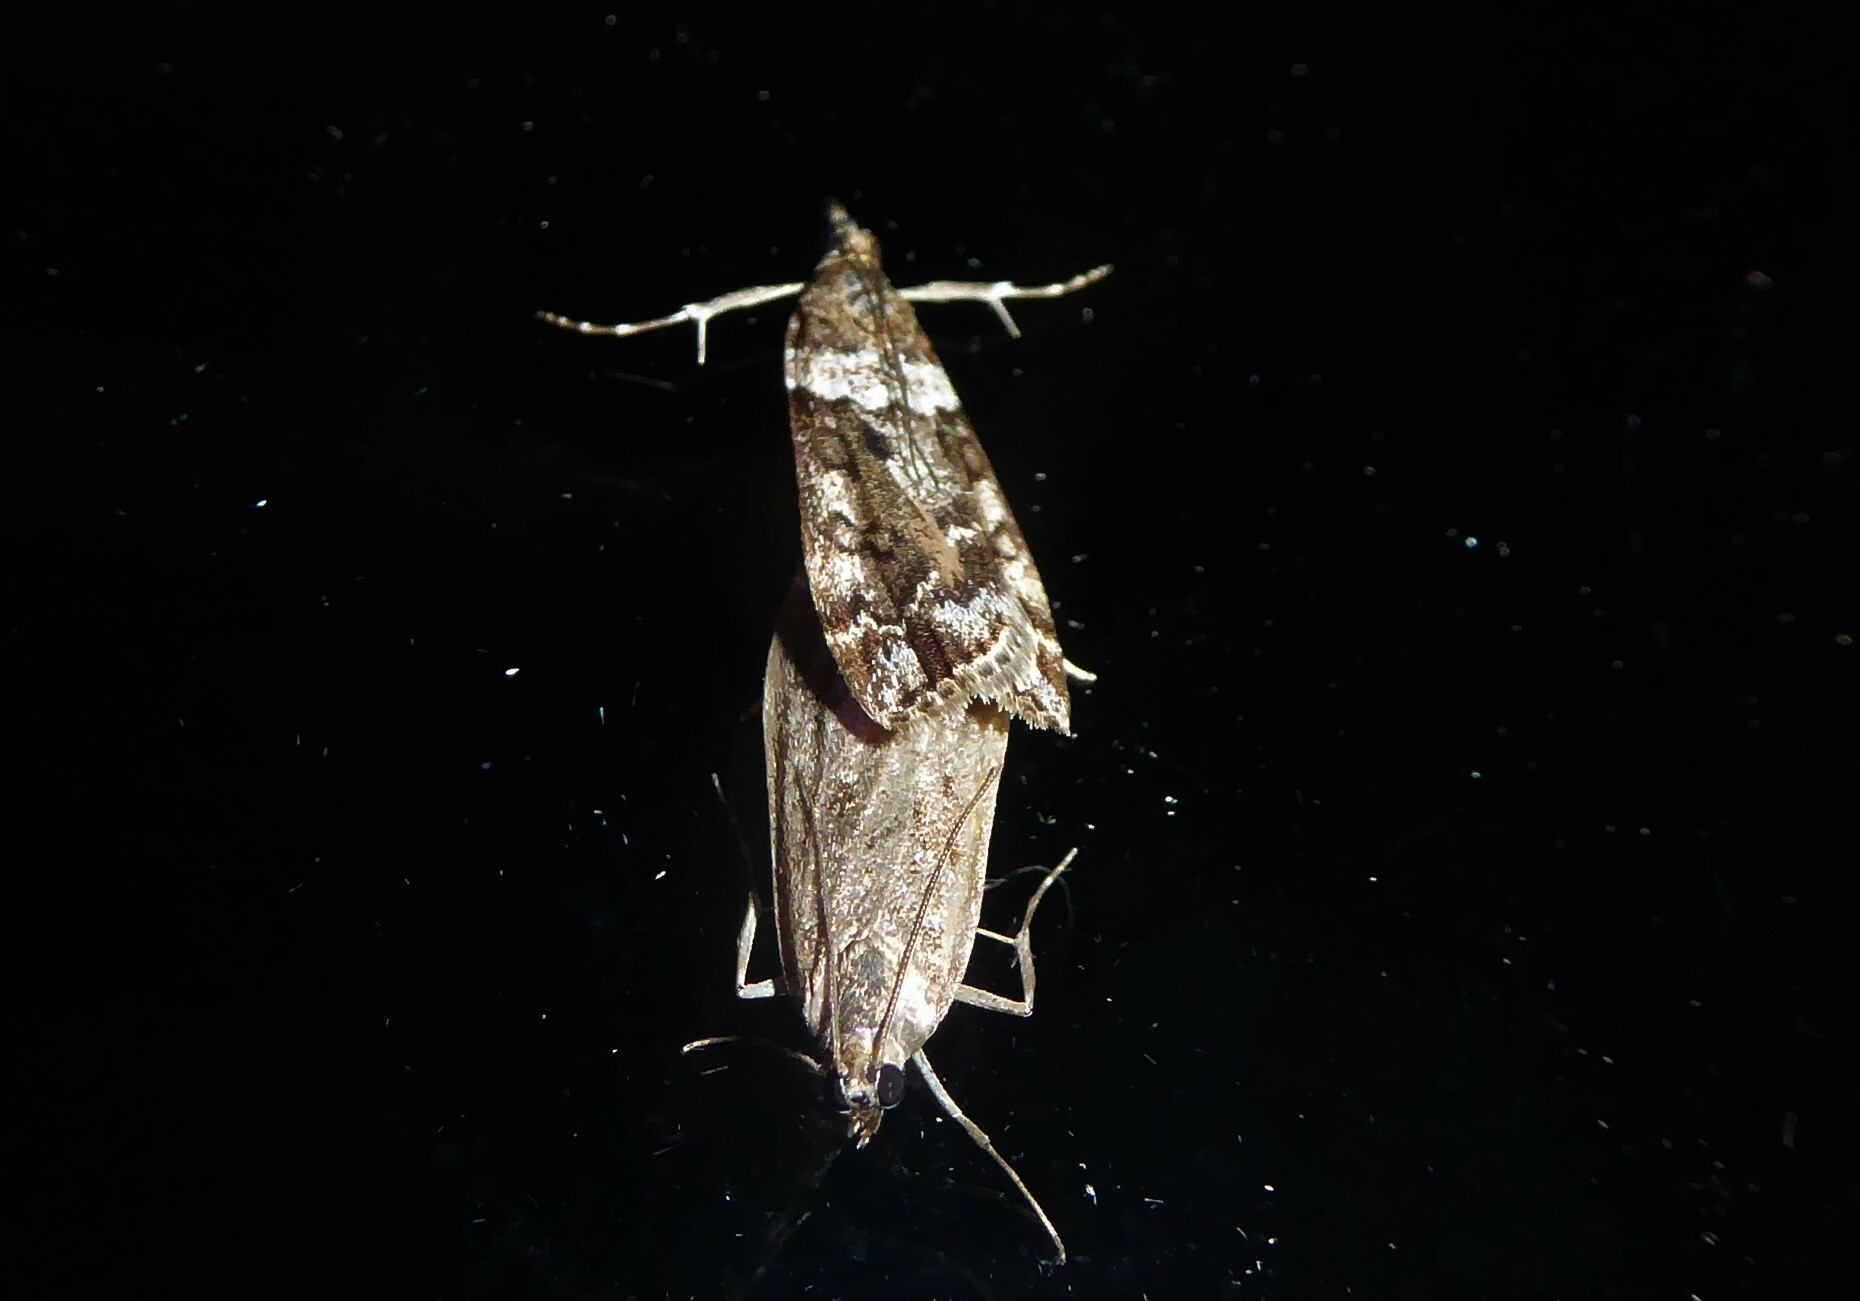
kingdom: Animalia
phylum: Arthropoda
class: Insecta
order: Lepidoptera
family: Crambidae
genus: Eudonia
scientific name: Eudonia submarginalis
